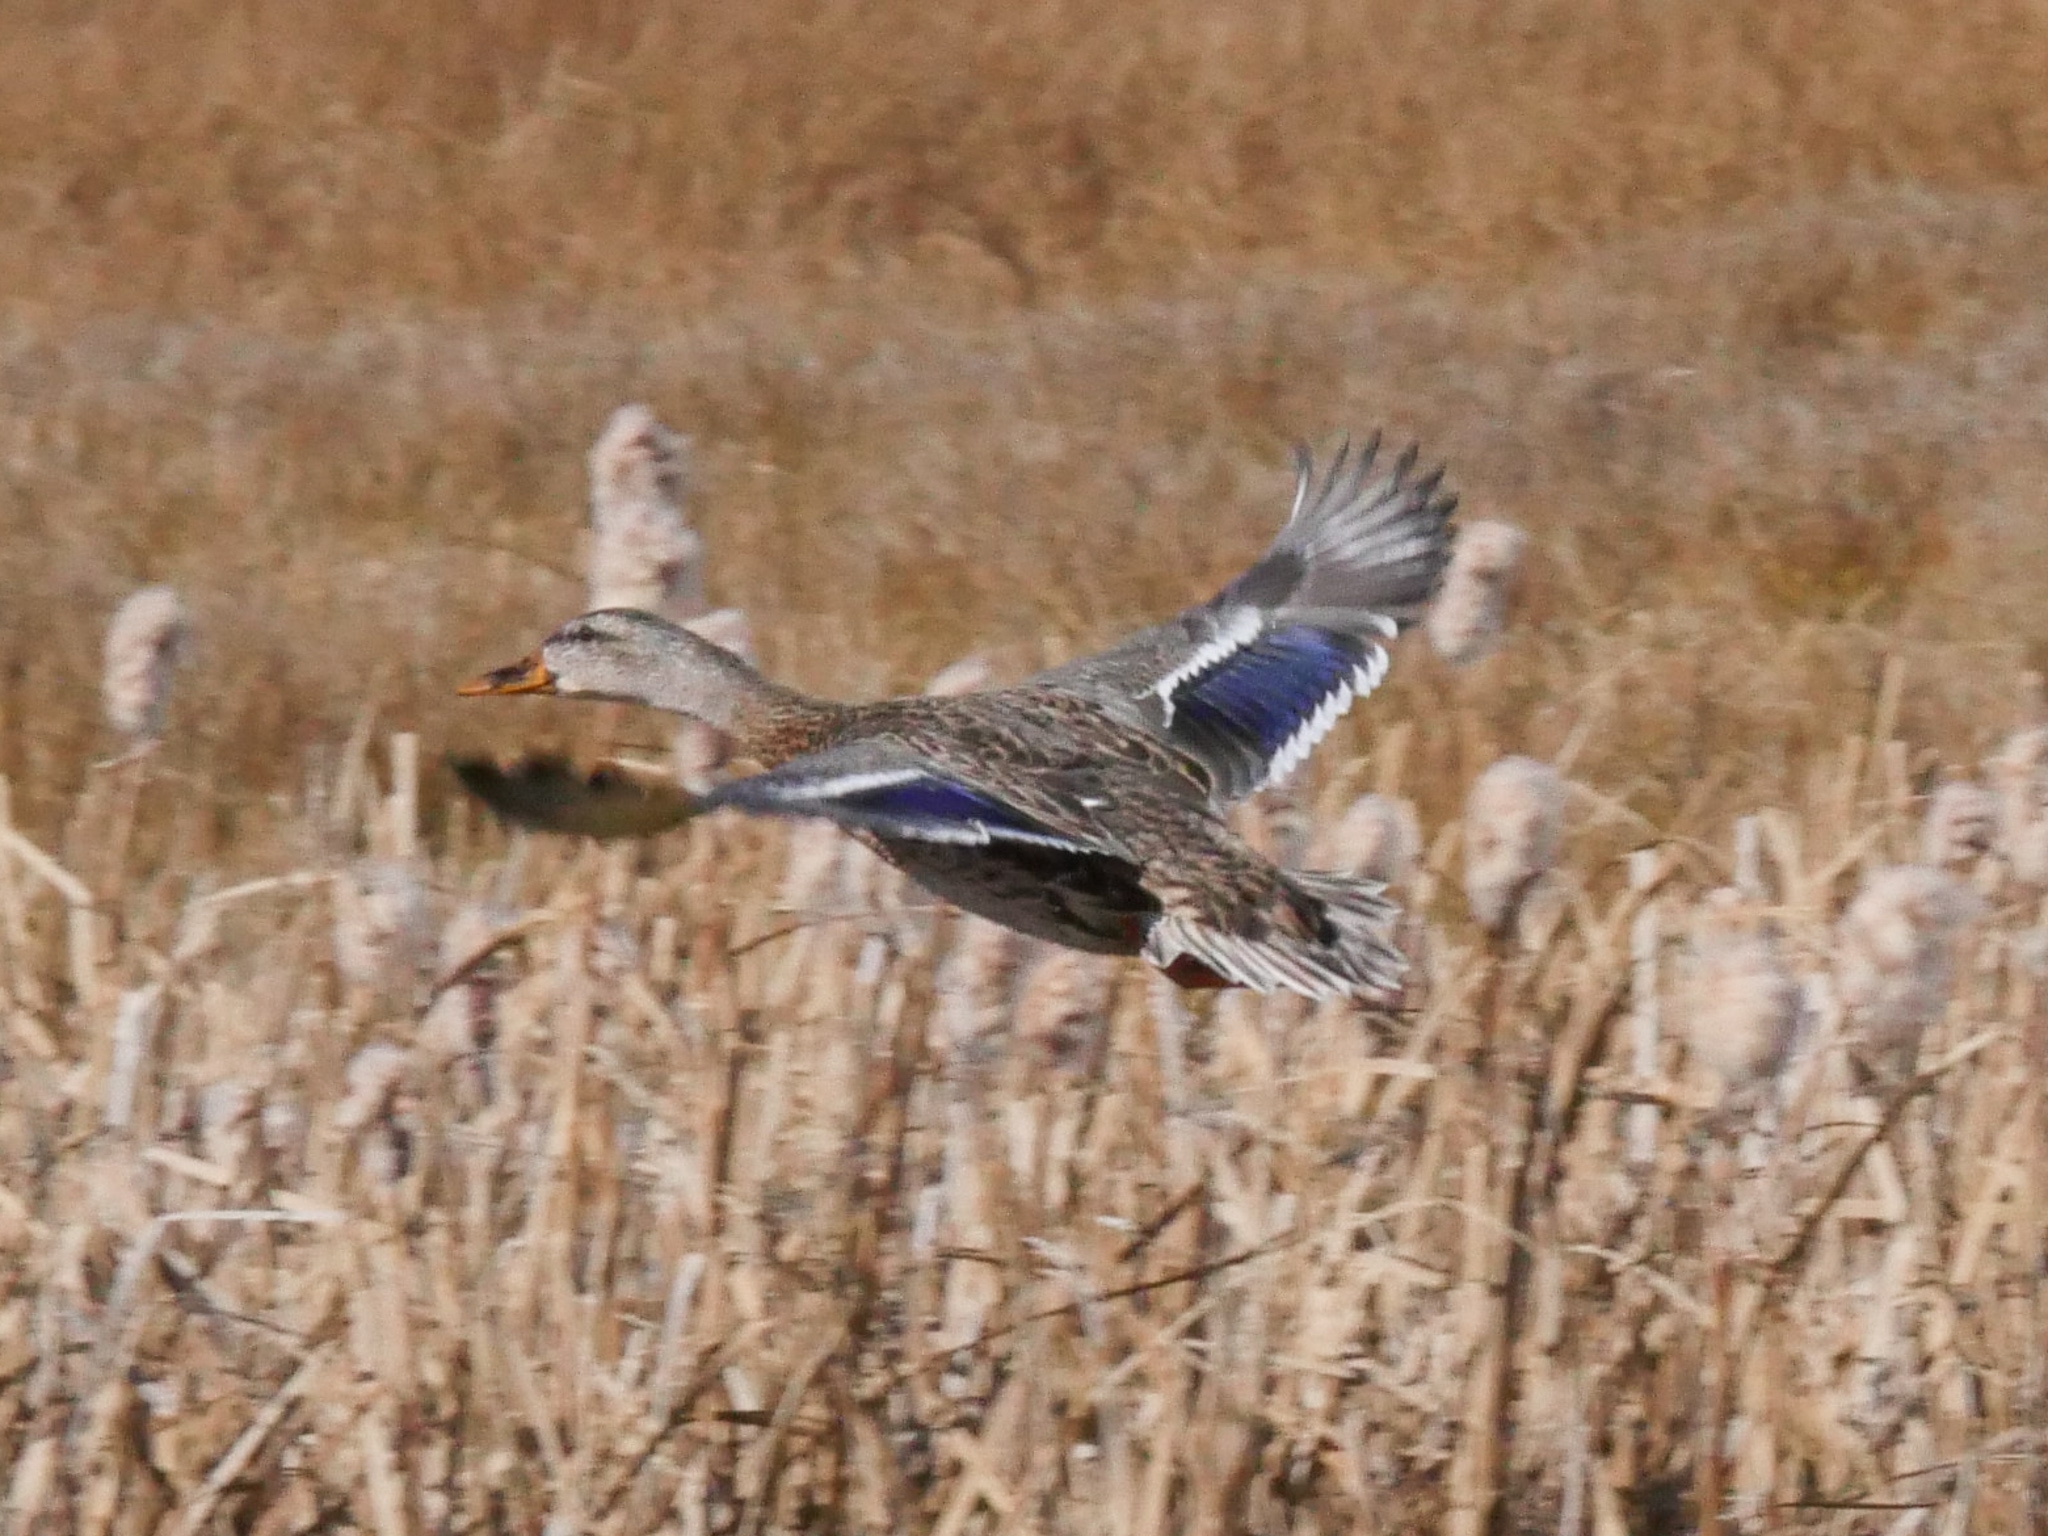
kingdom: Animalia
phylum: Chordata
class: Aves
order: Anseriformes
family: Anatidae
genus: Anas
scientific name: Anas platyrhynchos
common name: Mallard
